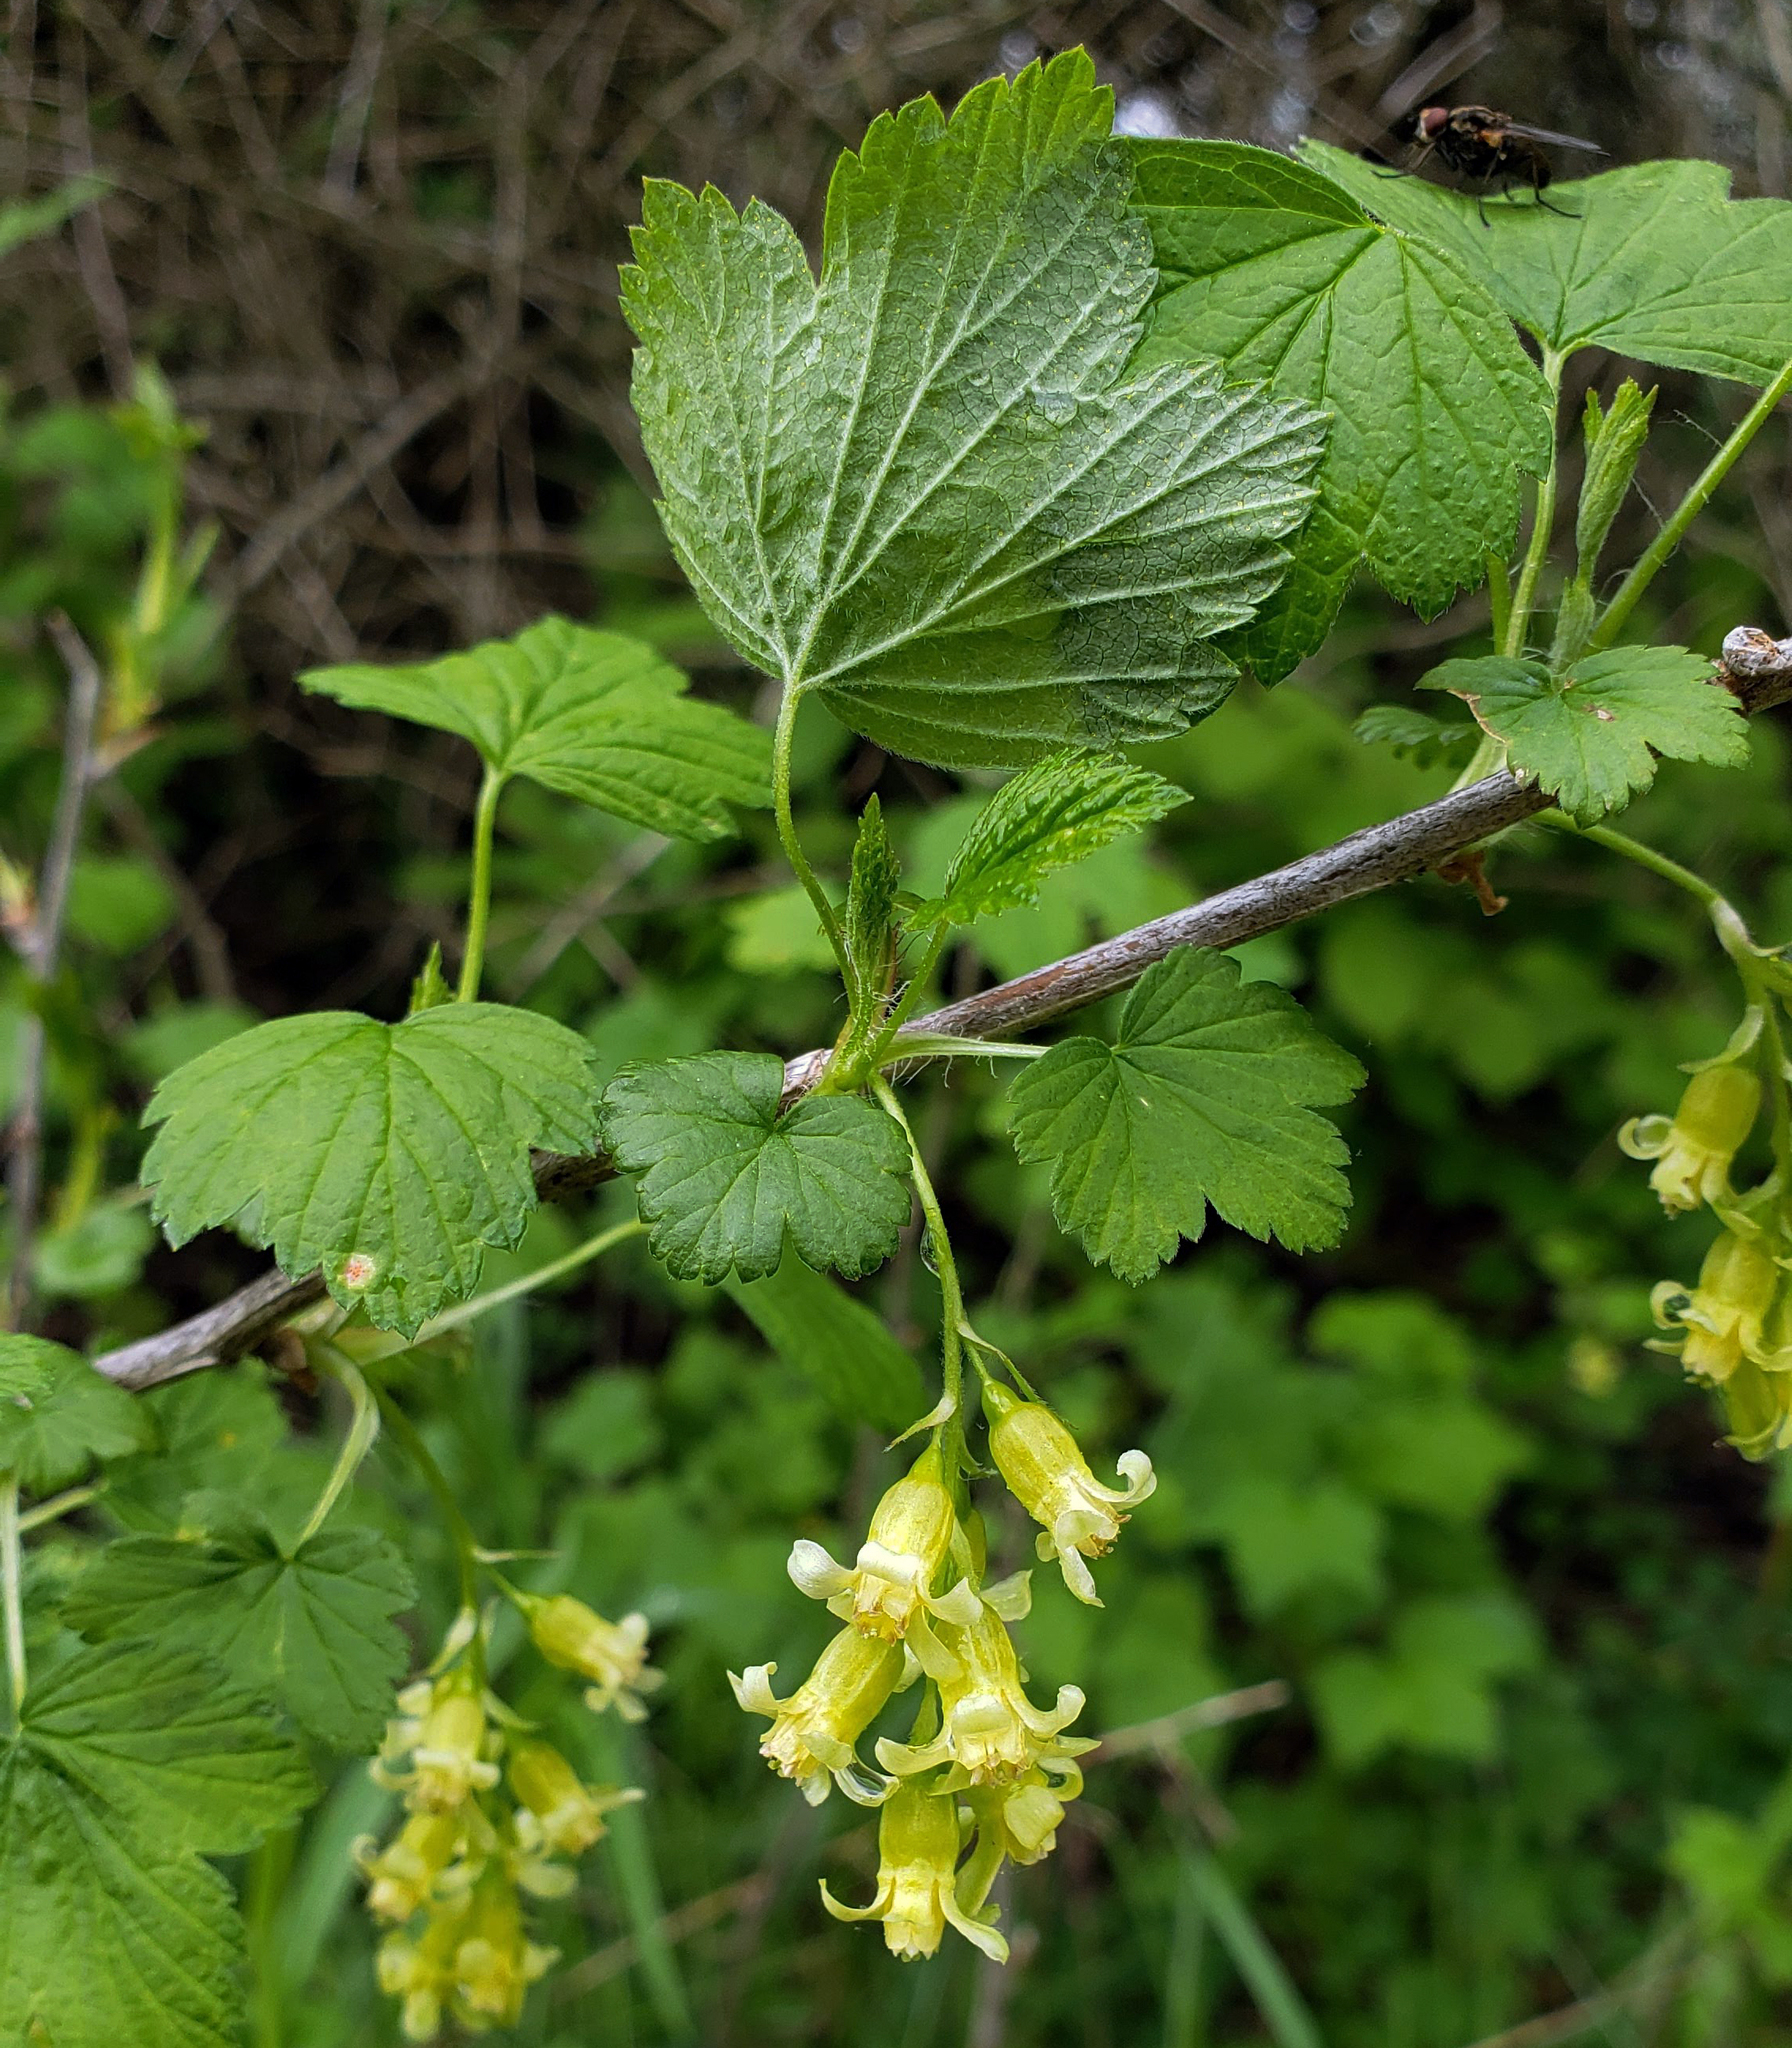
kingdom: Plantae
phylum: Tracheophyta
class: Magnoliopsida
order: Saxifragales
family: Grossulariaceae
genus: Ribes
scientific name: Ribes americanum
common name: American black currant
